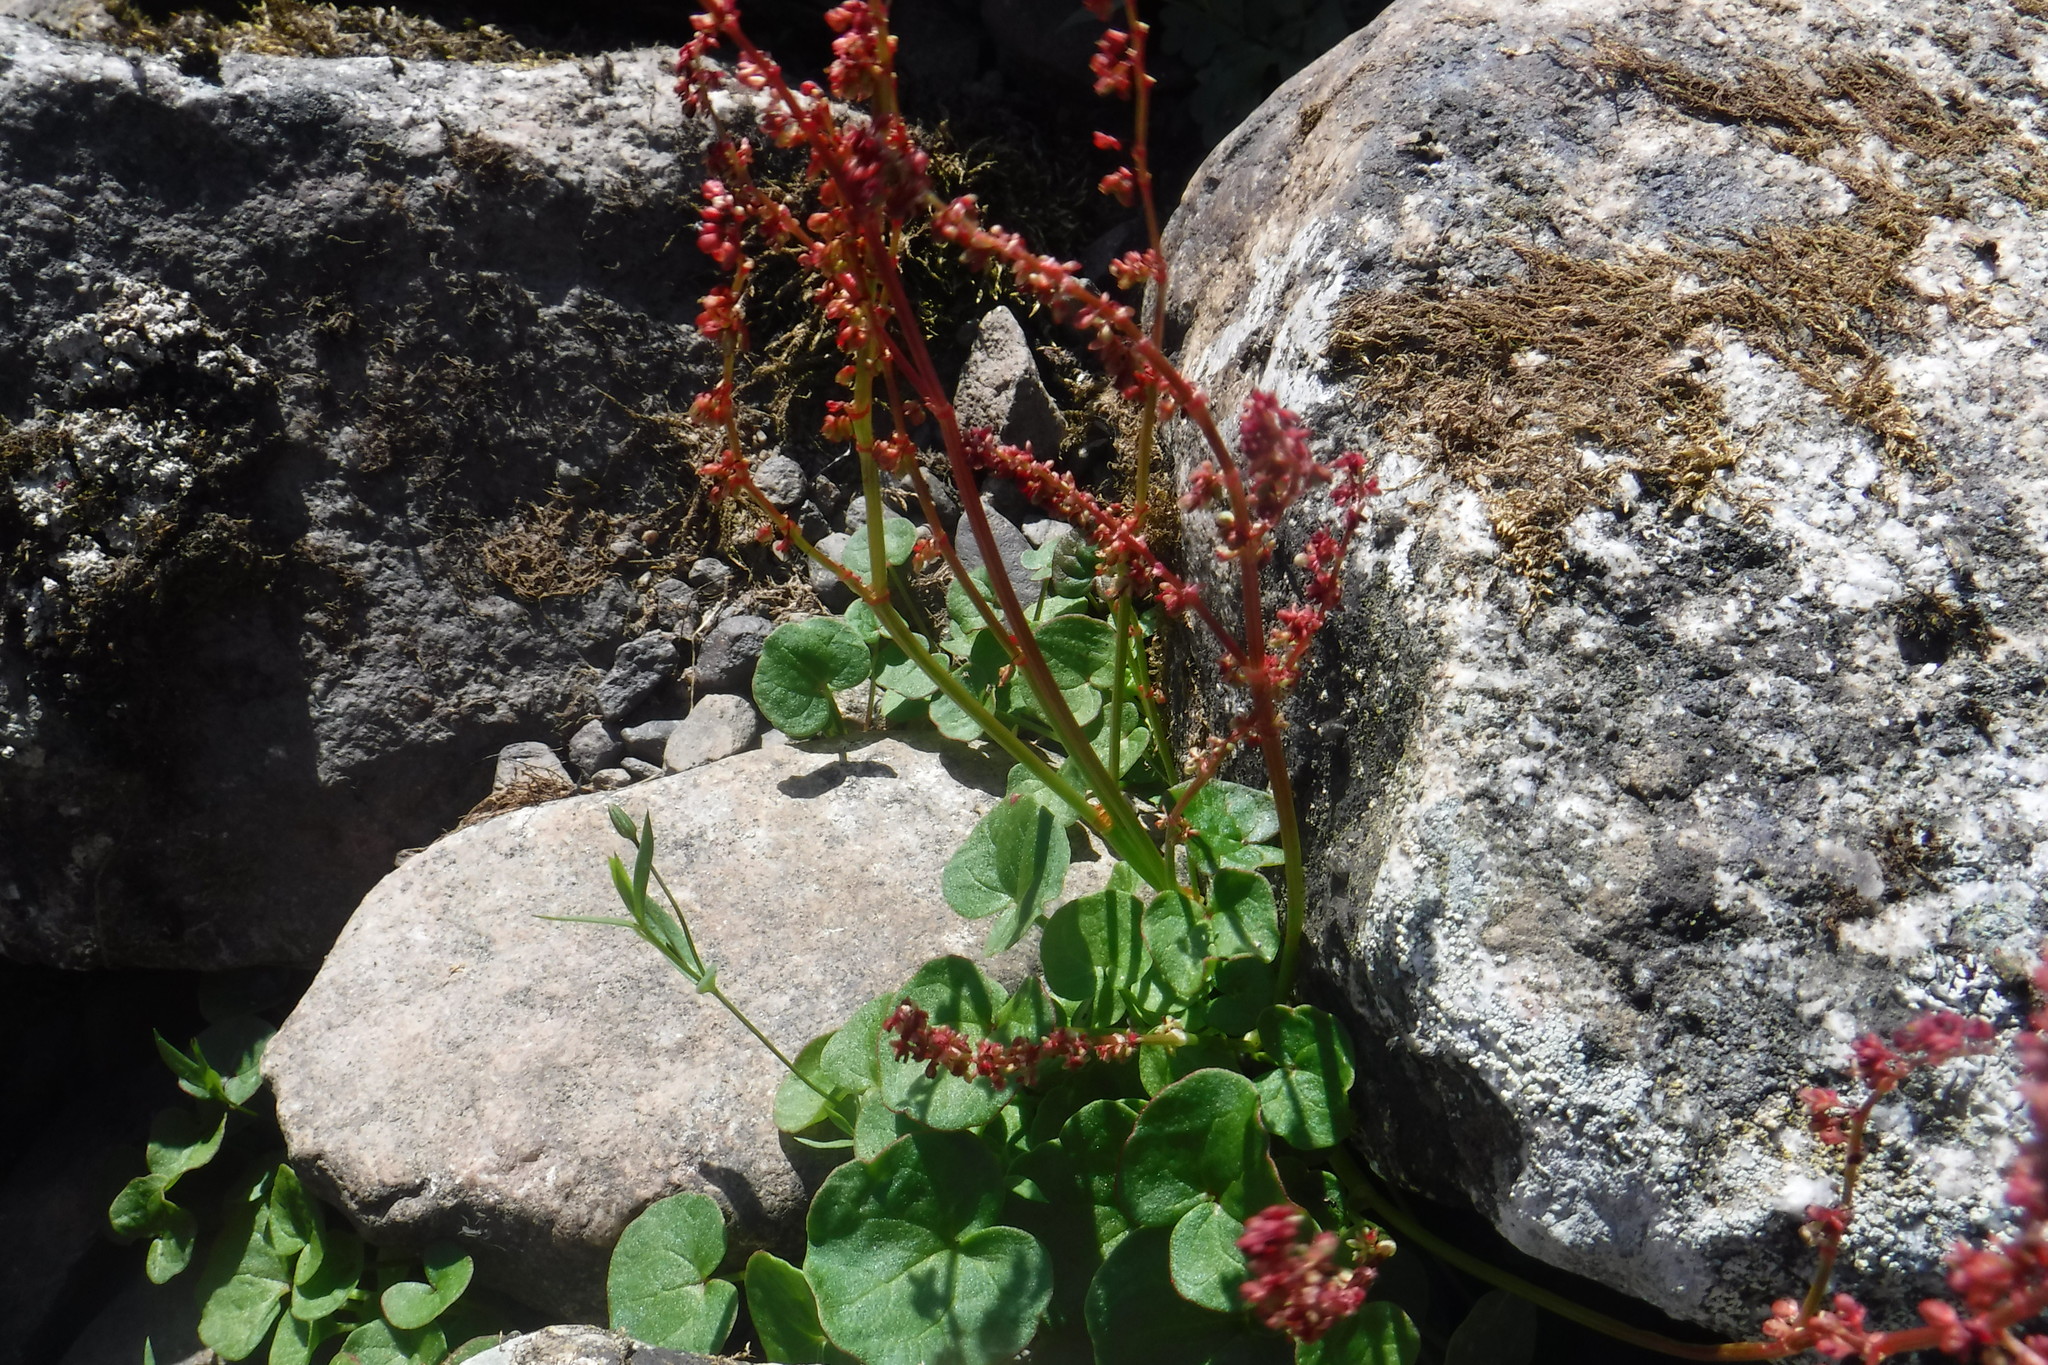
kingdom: Plantae
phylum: Tracheophyta
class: Magnoliopsida
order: Caryophyllales
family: Polygonaceae
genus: Oxyria
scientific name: Oxyria digyna
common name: Alpine mountain-sorrel
